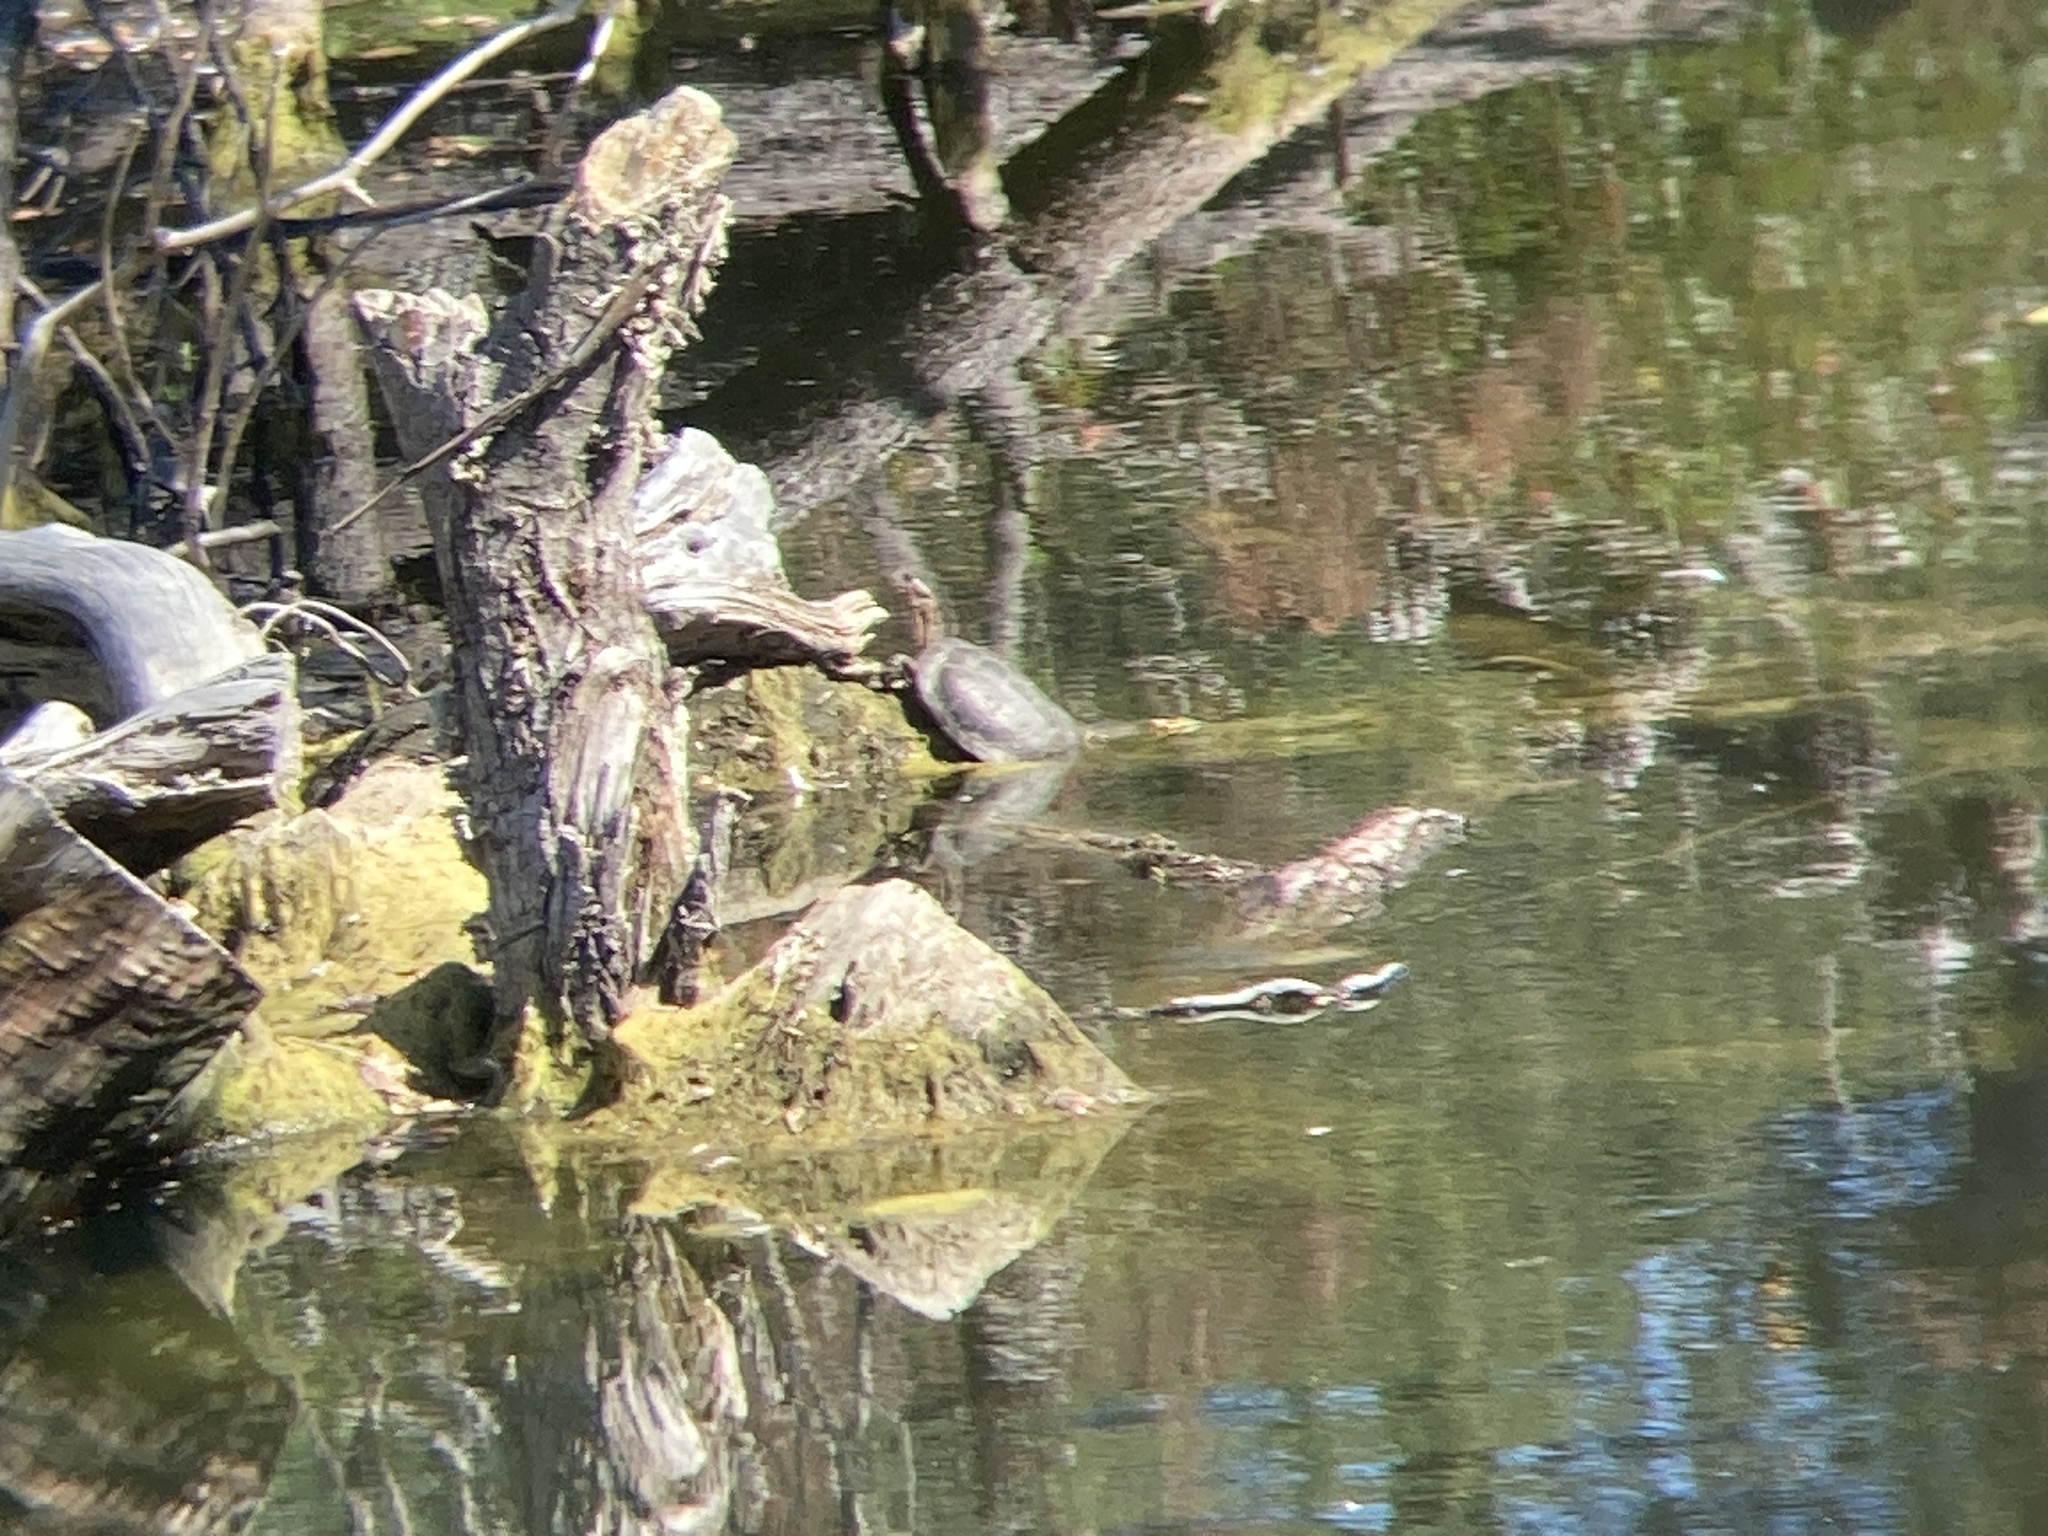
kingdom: Animalia
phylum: Chordata
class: Testudines
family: Emydidae
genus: Actinemys
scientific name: Actinemys marmorata
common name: Western pond turtle
